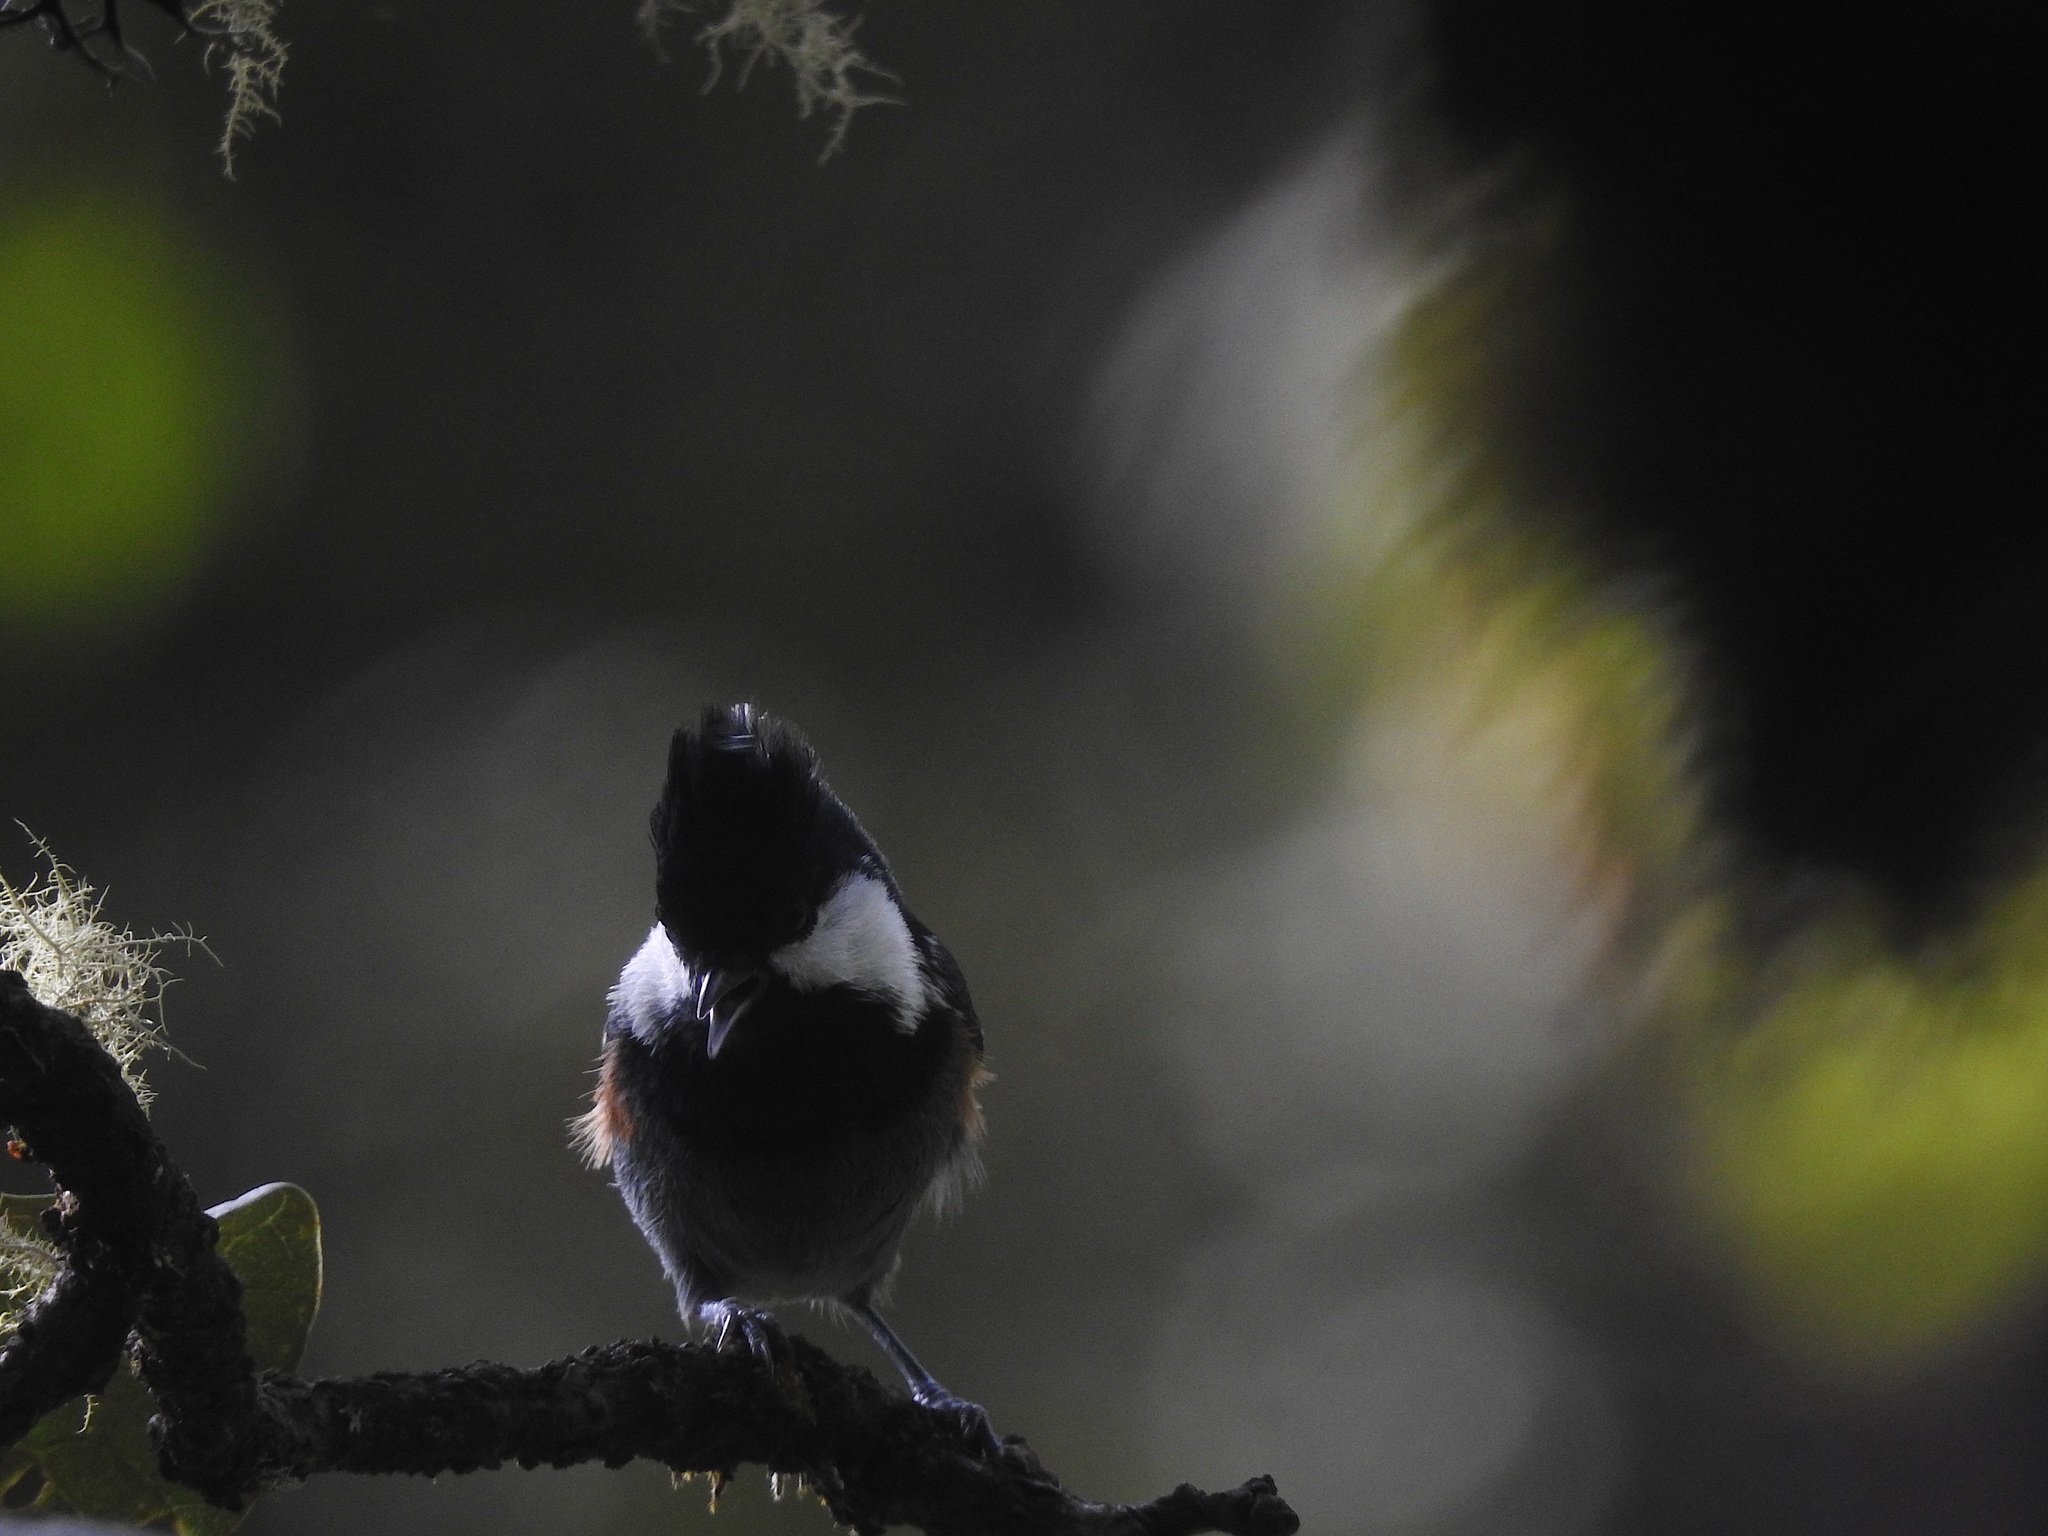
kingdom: Animalia
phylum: Chordata
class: Aves
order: Passeriformes
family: Paridae
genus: Periparus
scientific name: Periparus rubidiventris
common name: Rufous-vented tit
